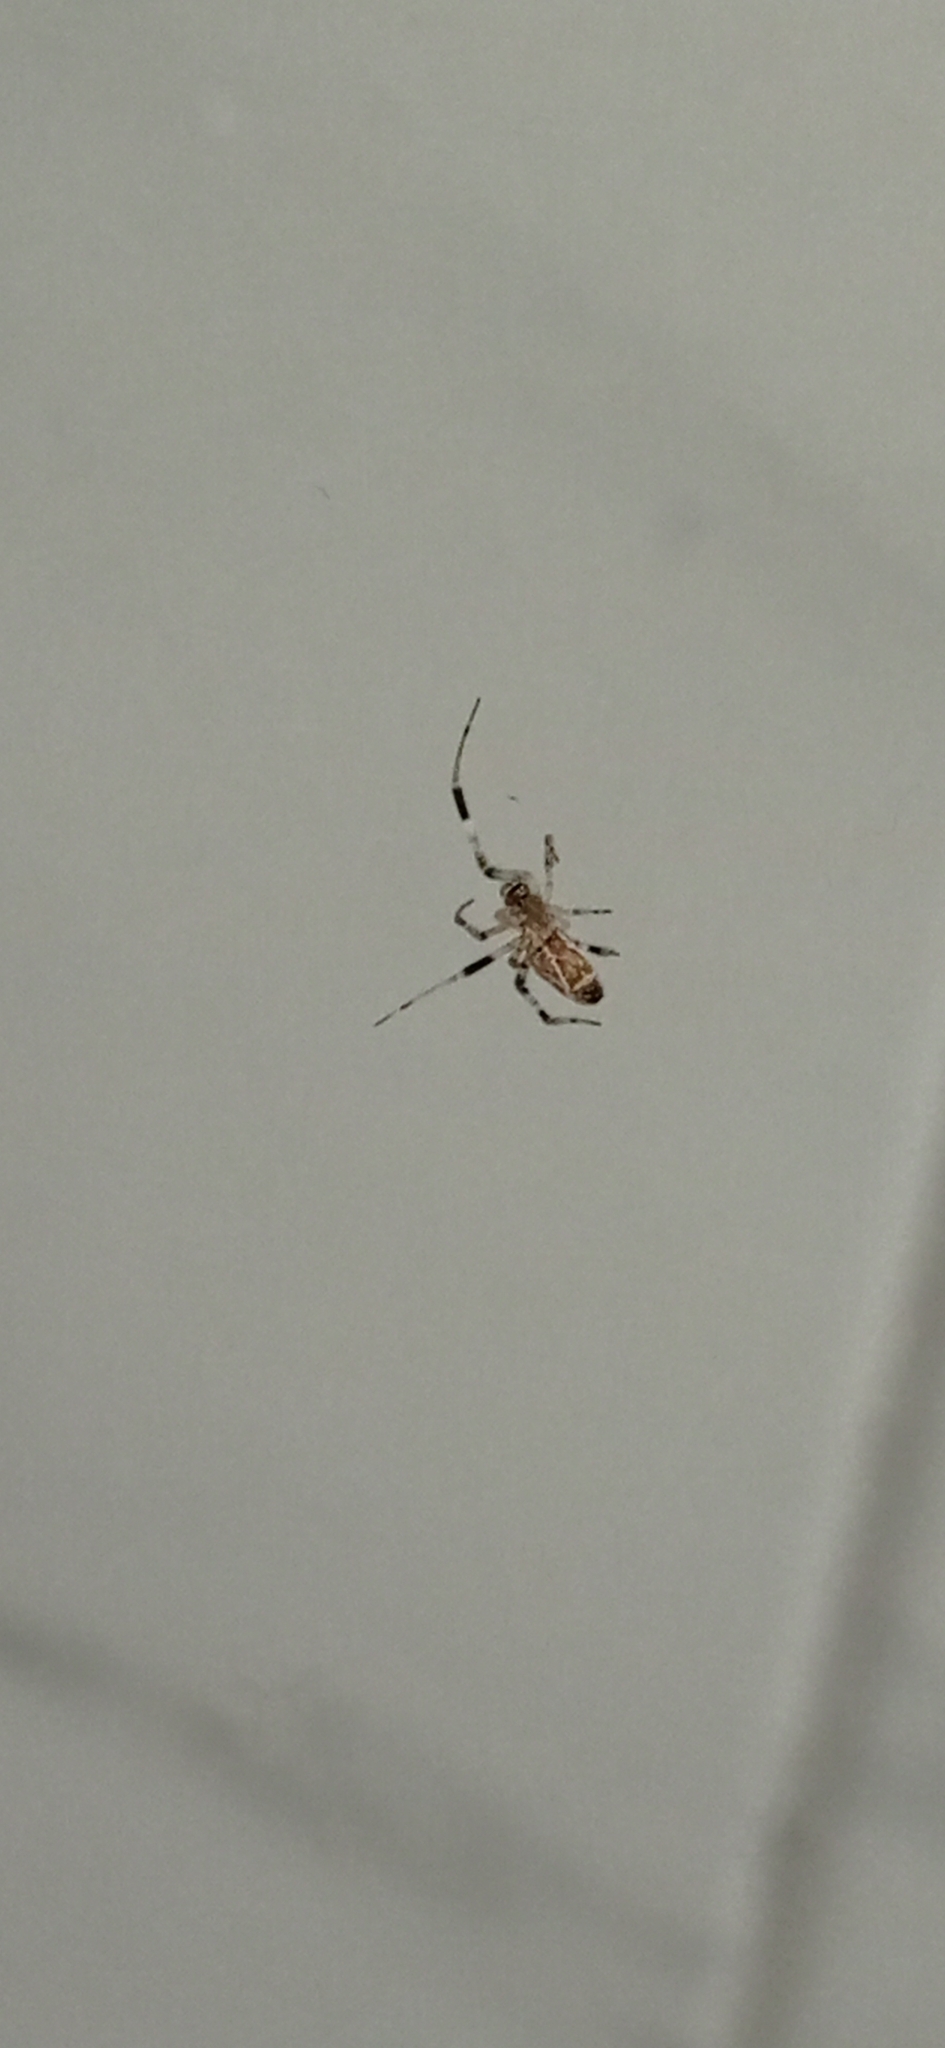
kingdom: Animalia
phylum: Arthropoda
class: Arachnida
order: Araneae
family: Uloboridae
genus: Zosis
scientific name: Zosis geniculata
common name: Hackled orb weavers
